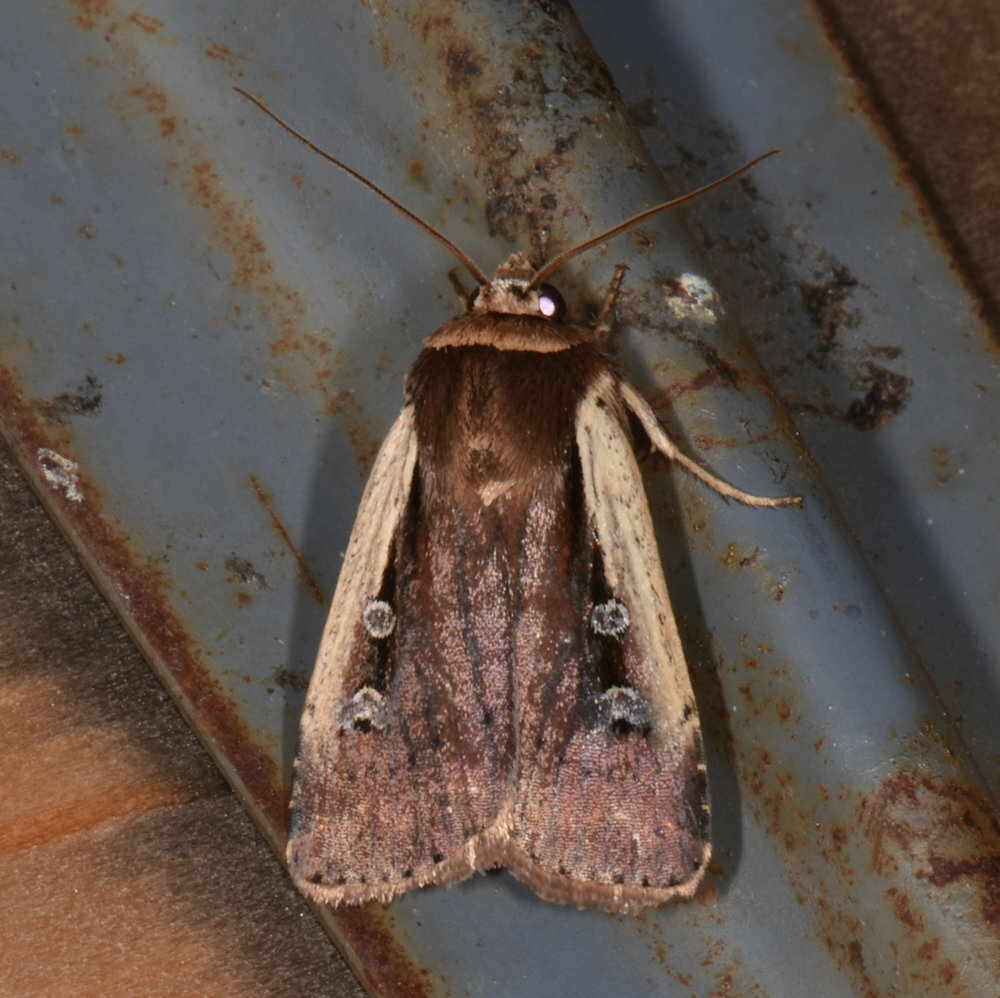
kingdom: Animalia
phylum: Arthropoda
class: Insecta
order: Lepidoptera
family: Noctuidae
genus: Ochropleura
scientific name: Ochropleura implecta
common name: Flame-shouldered dart
